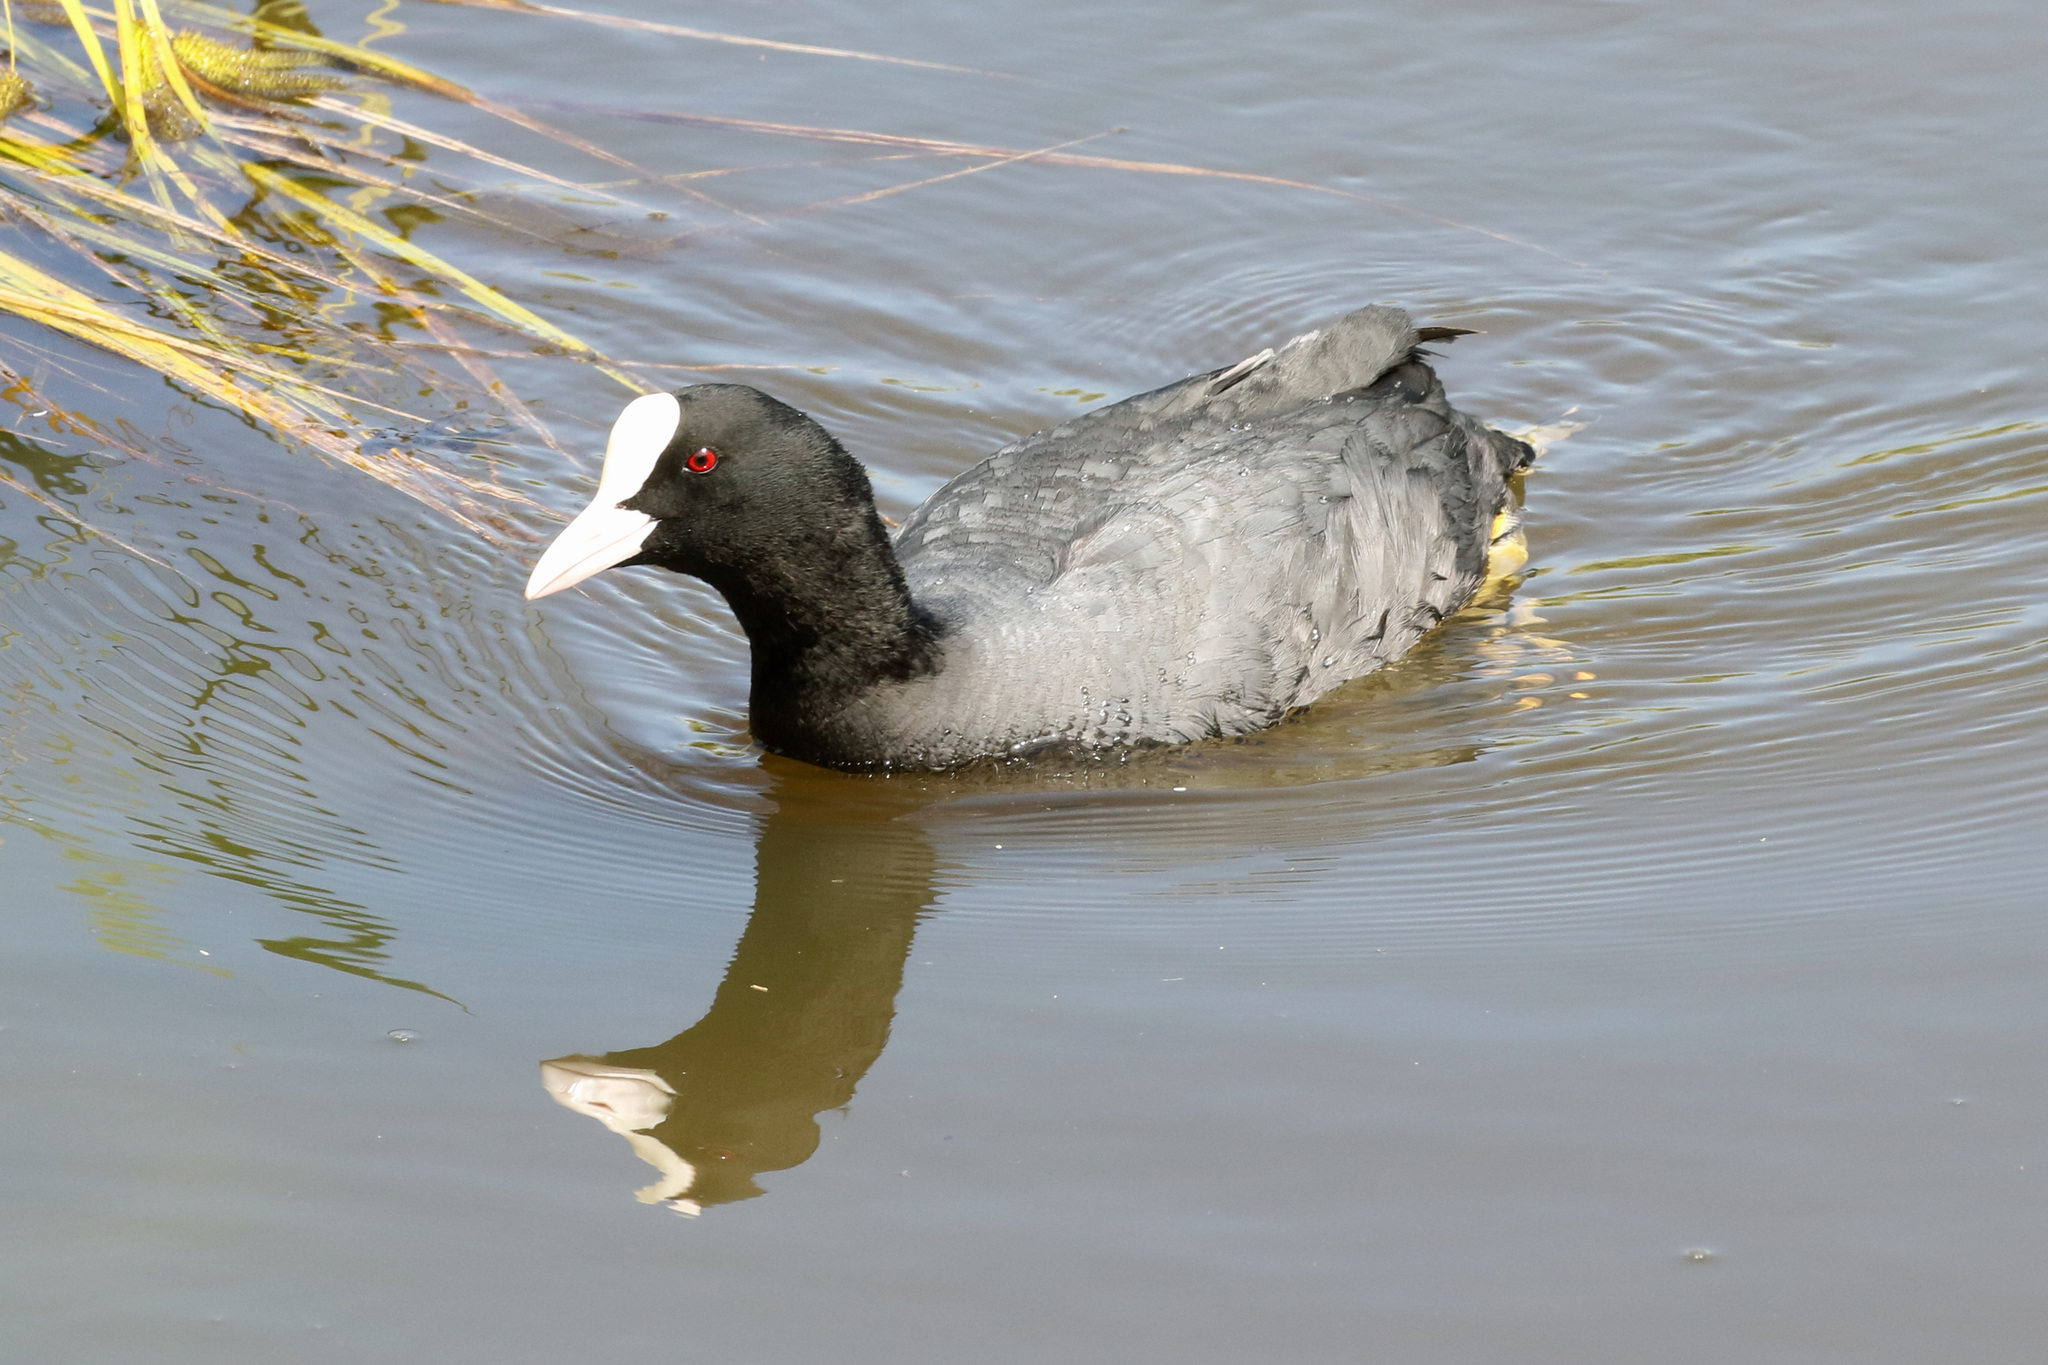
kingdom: Animalia
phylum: Chordata
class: Aves
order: Gruiformes
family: Rallidae
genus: Fulica
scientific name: Fulica atra
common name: Eurasian coot
